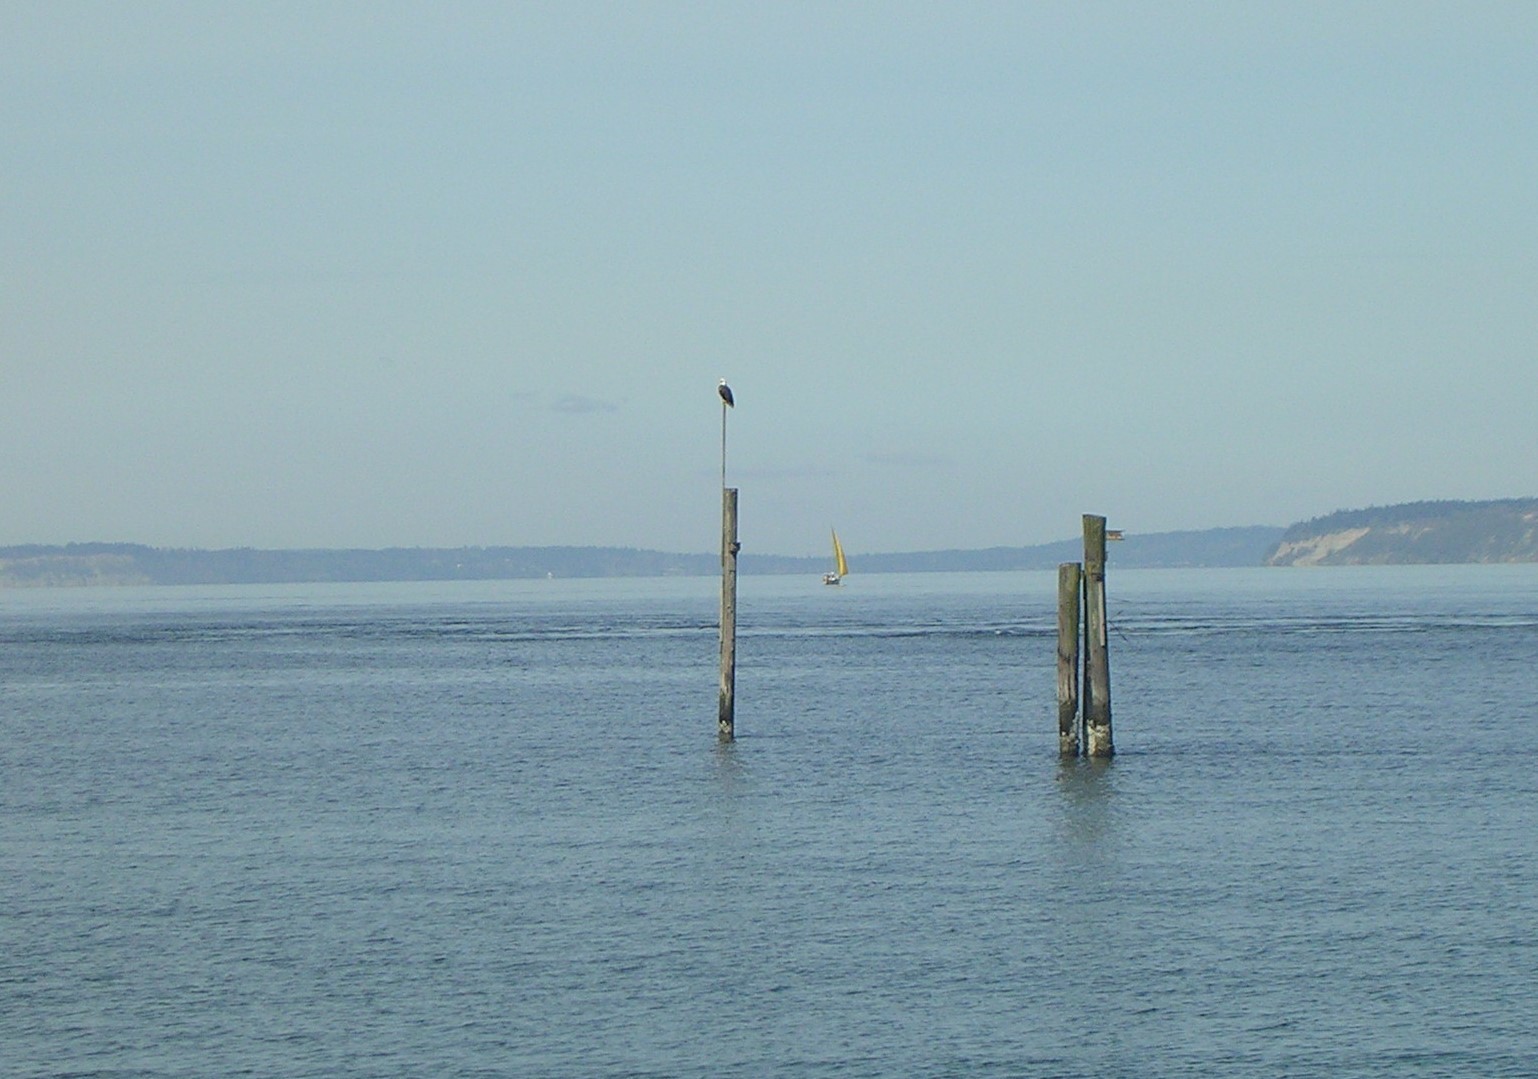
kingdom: Animalia
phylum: Chordata
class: Aves
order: Accipitriformes
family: Accipitridae
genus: Haliaeetus
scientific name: Haliaeetus leucocephalus
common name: Bald eagle
